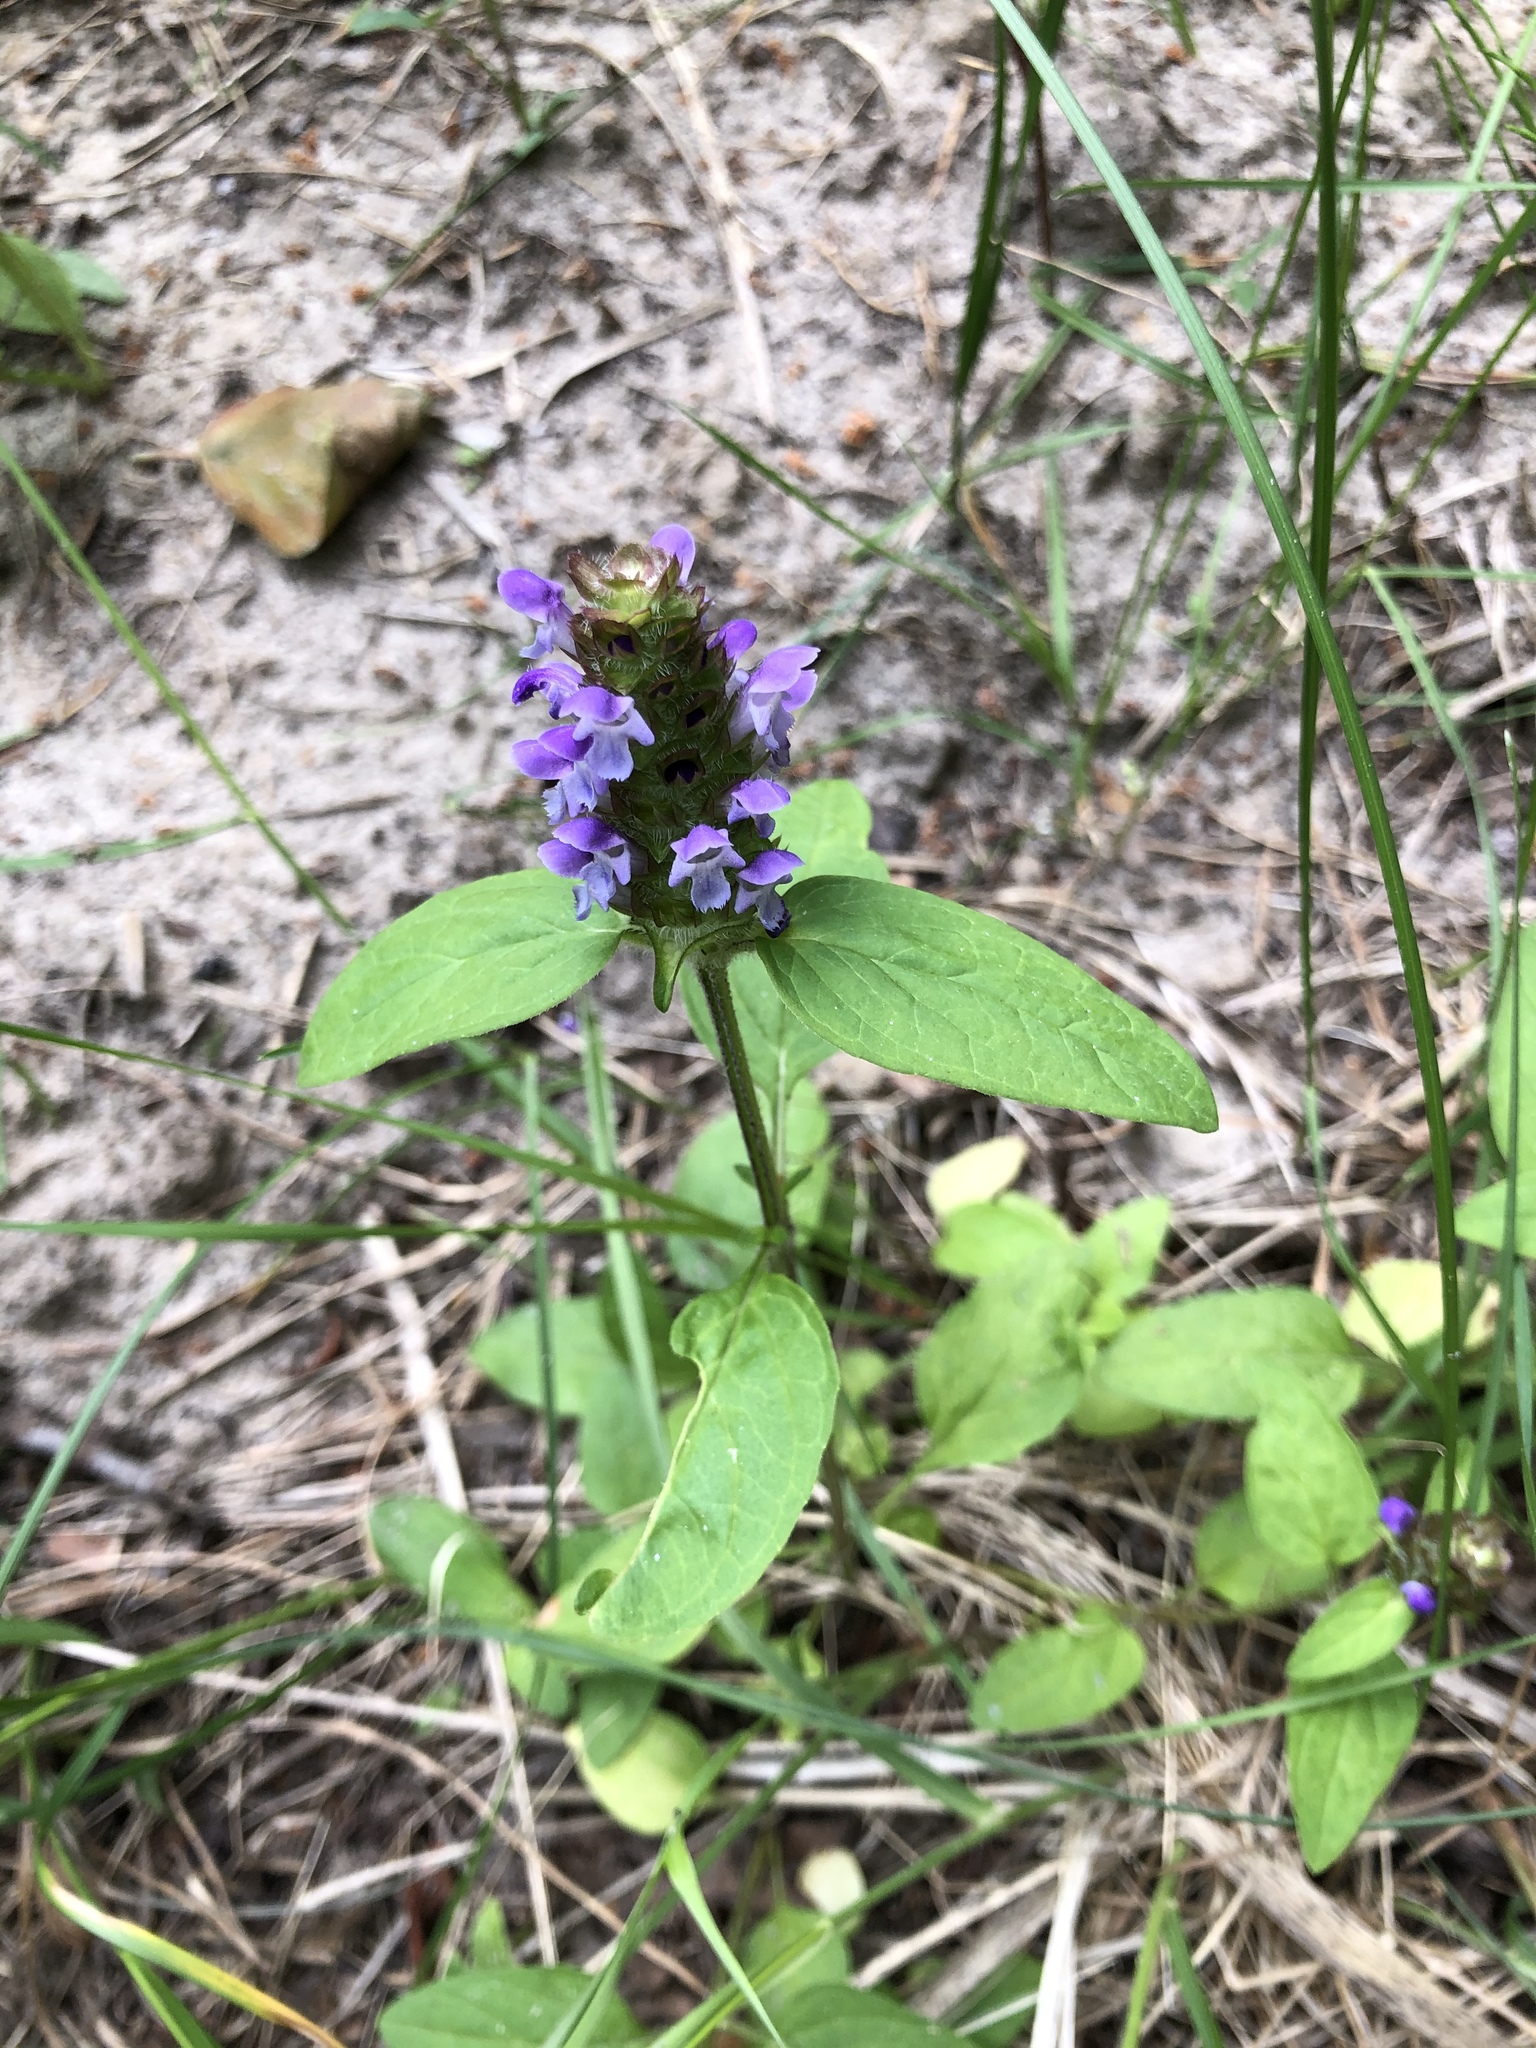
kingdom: Plantae
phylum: Tracheophyta
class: Magnoliopsida
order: Lamiales
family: Lamiaceae
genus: Prunella
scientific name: Prunella vulgaris
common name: Heal-all
